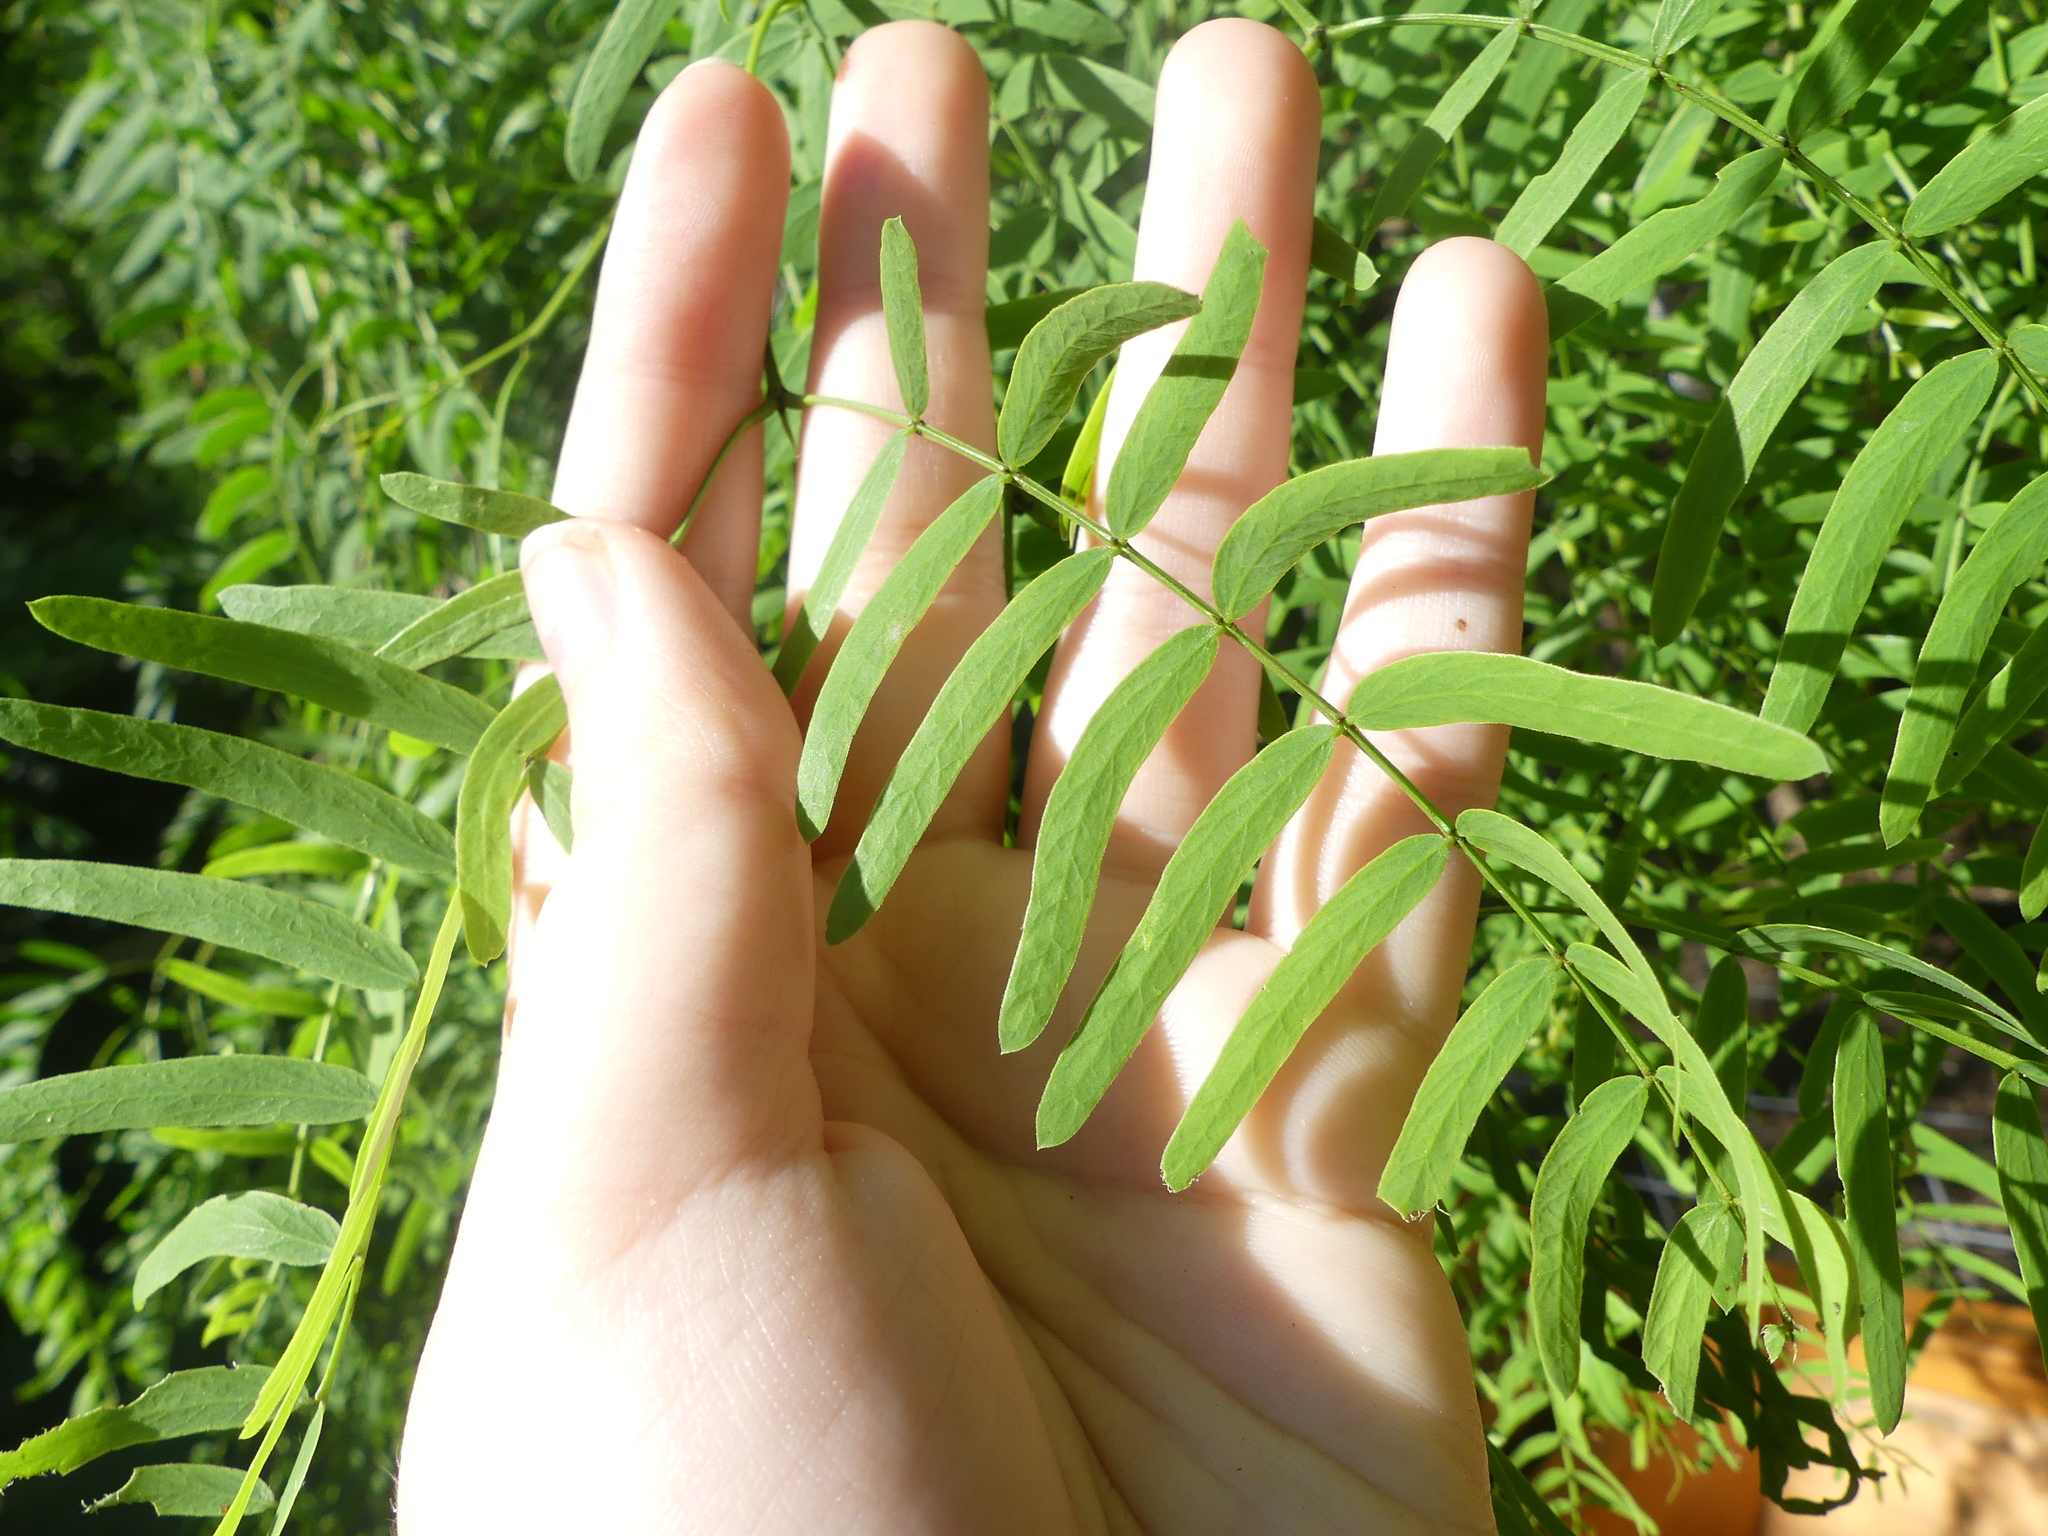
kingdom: Plantae
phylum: Tracheophyta
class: Magnoliopsida
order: Fabales
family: Fabaceae
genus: Prosopis
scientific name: Prosopis glandulosa
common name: Honey mesquite
